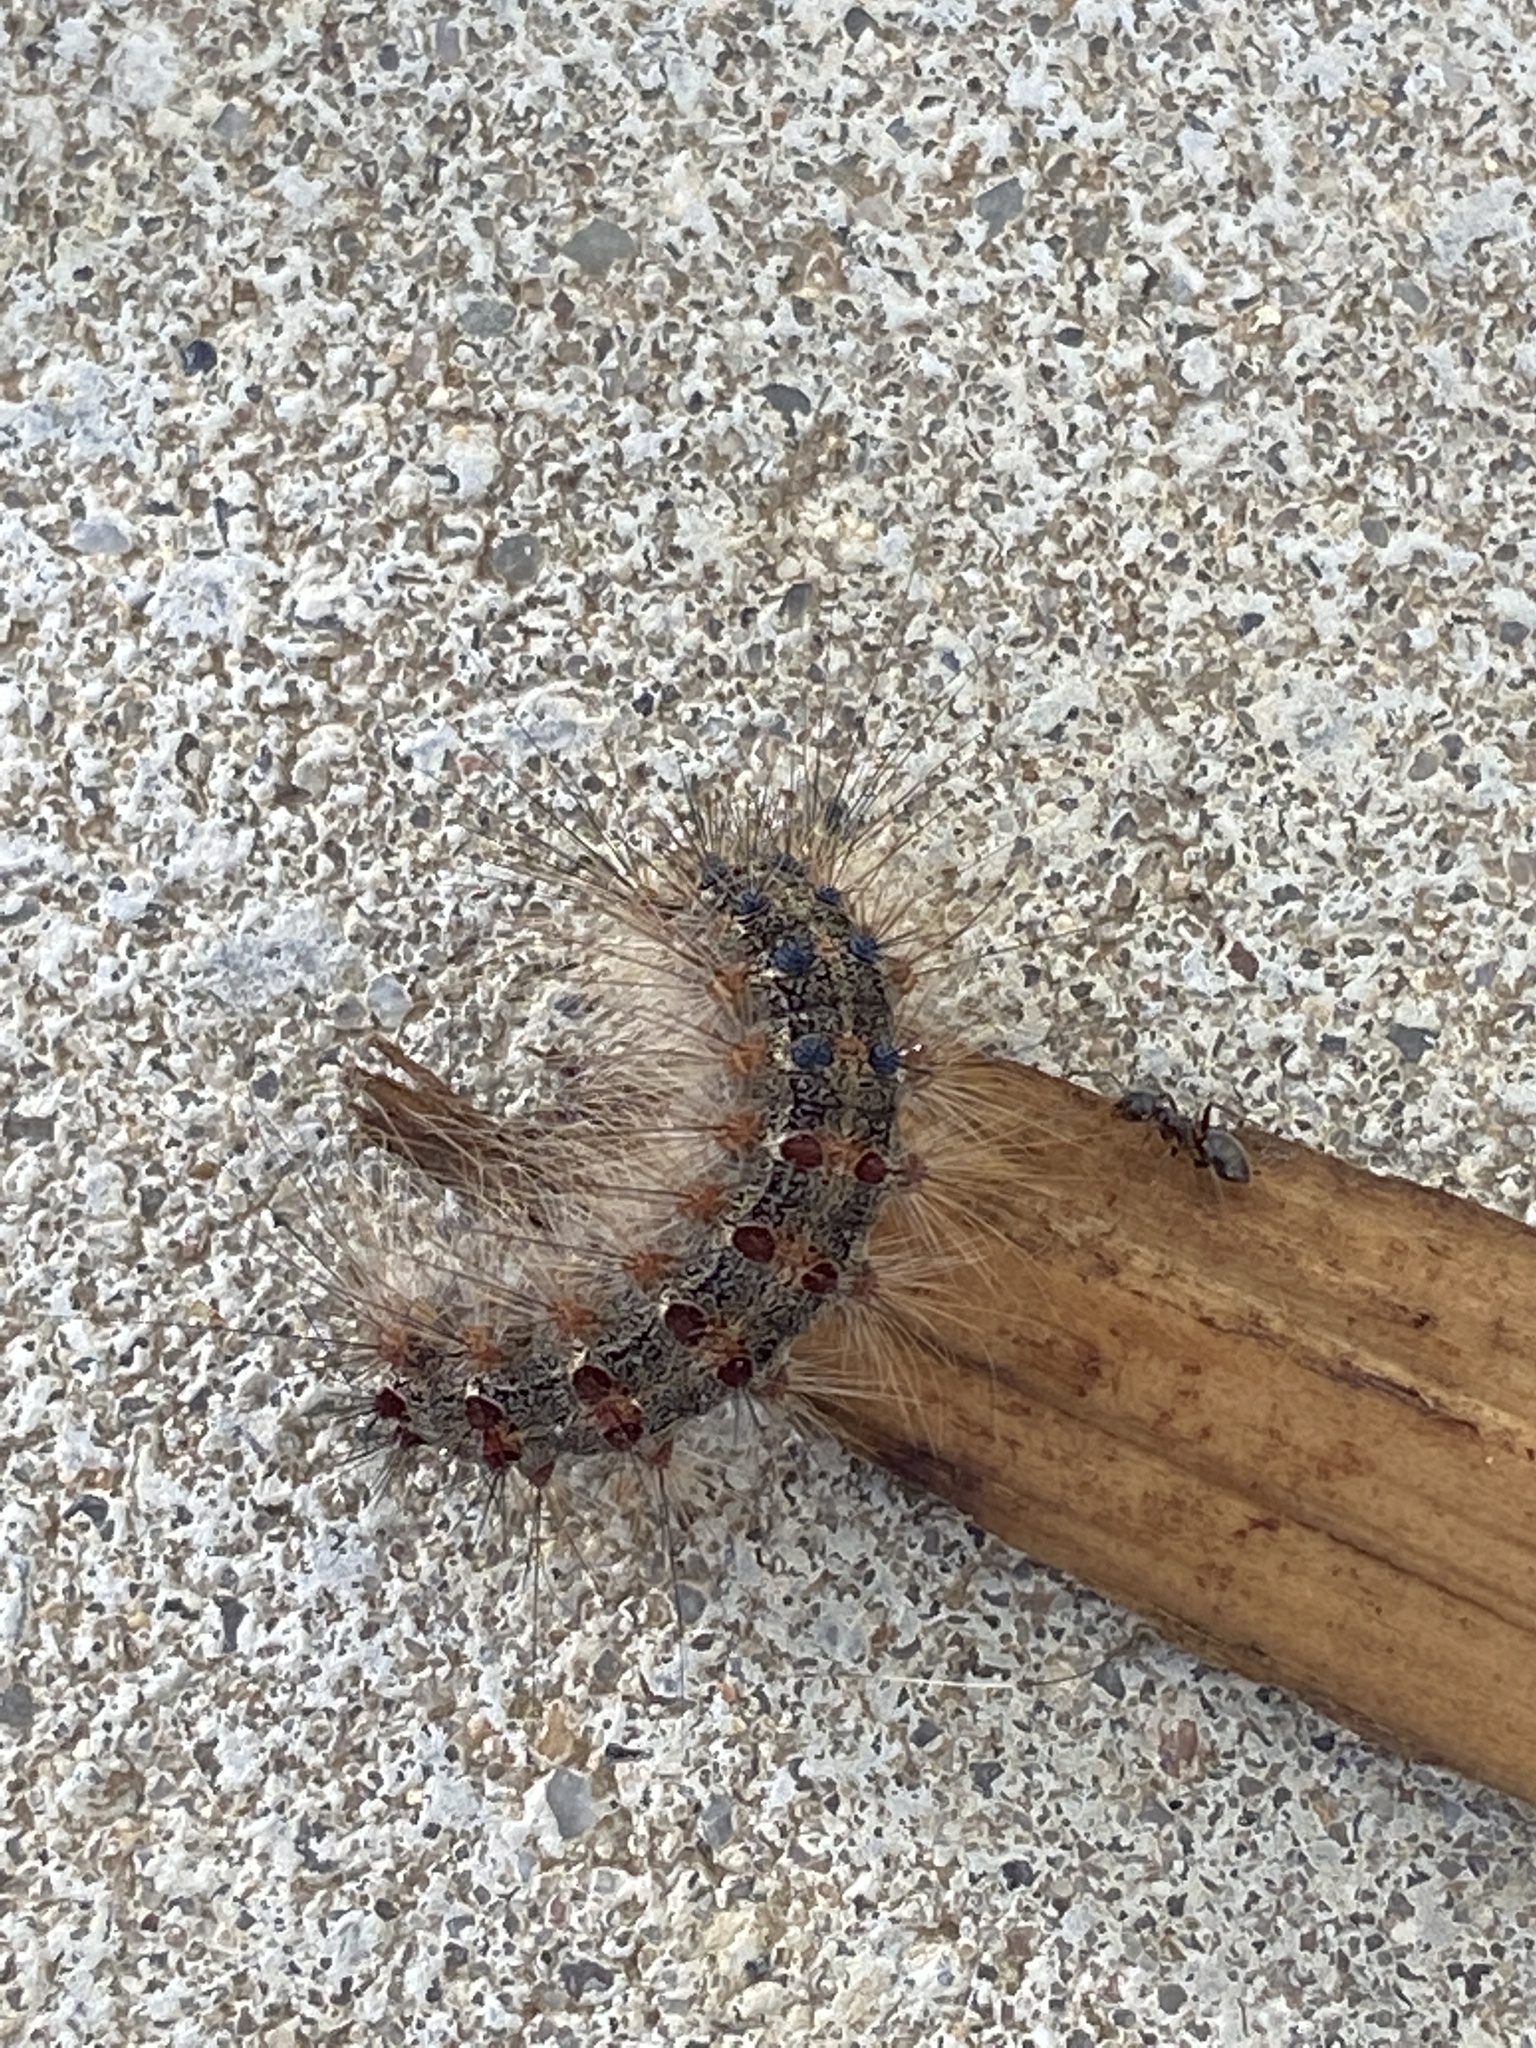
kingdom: Animalia
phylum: Arthropoda
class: Insecta
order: Lepidoptera
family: Erebidae
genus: Lymantria
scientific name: Lymantria dispar
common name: Gypsy moth
